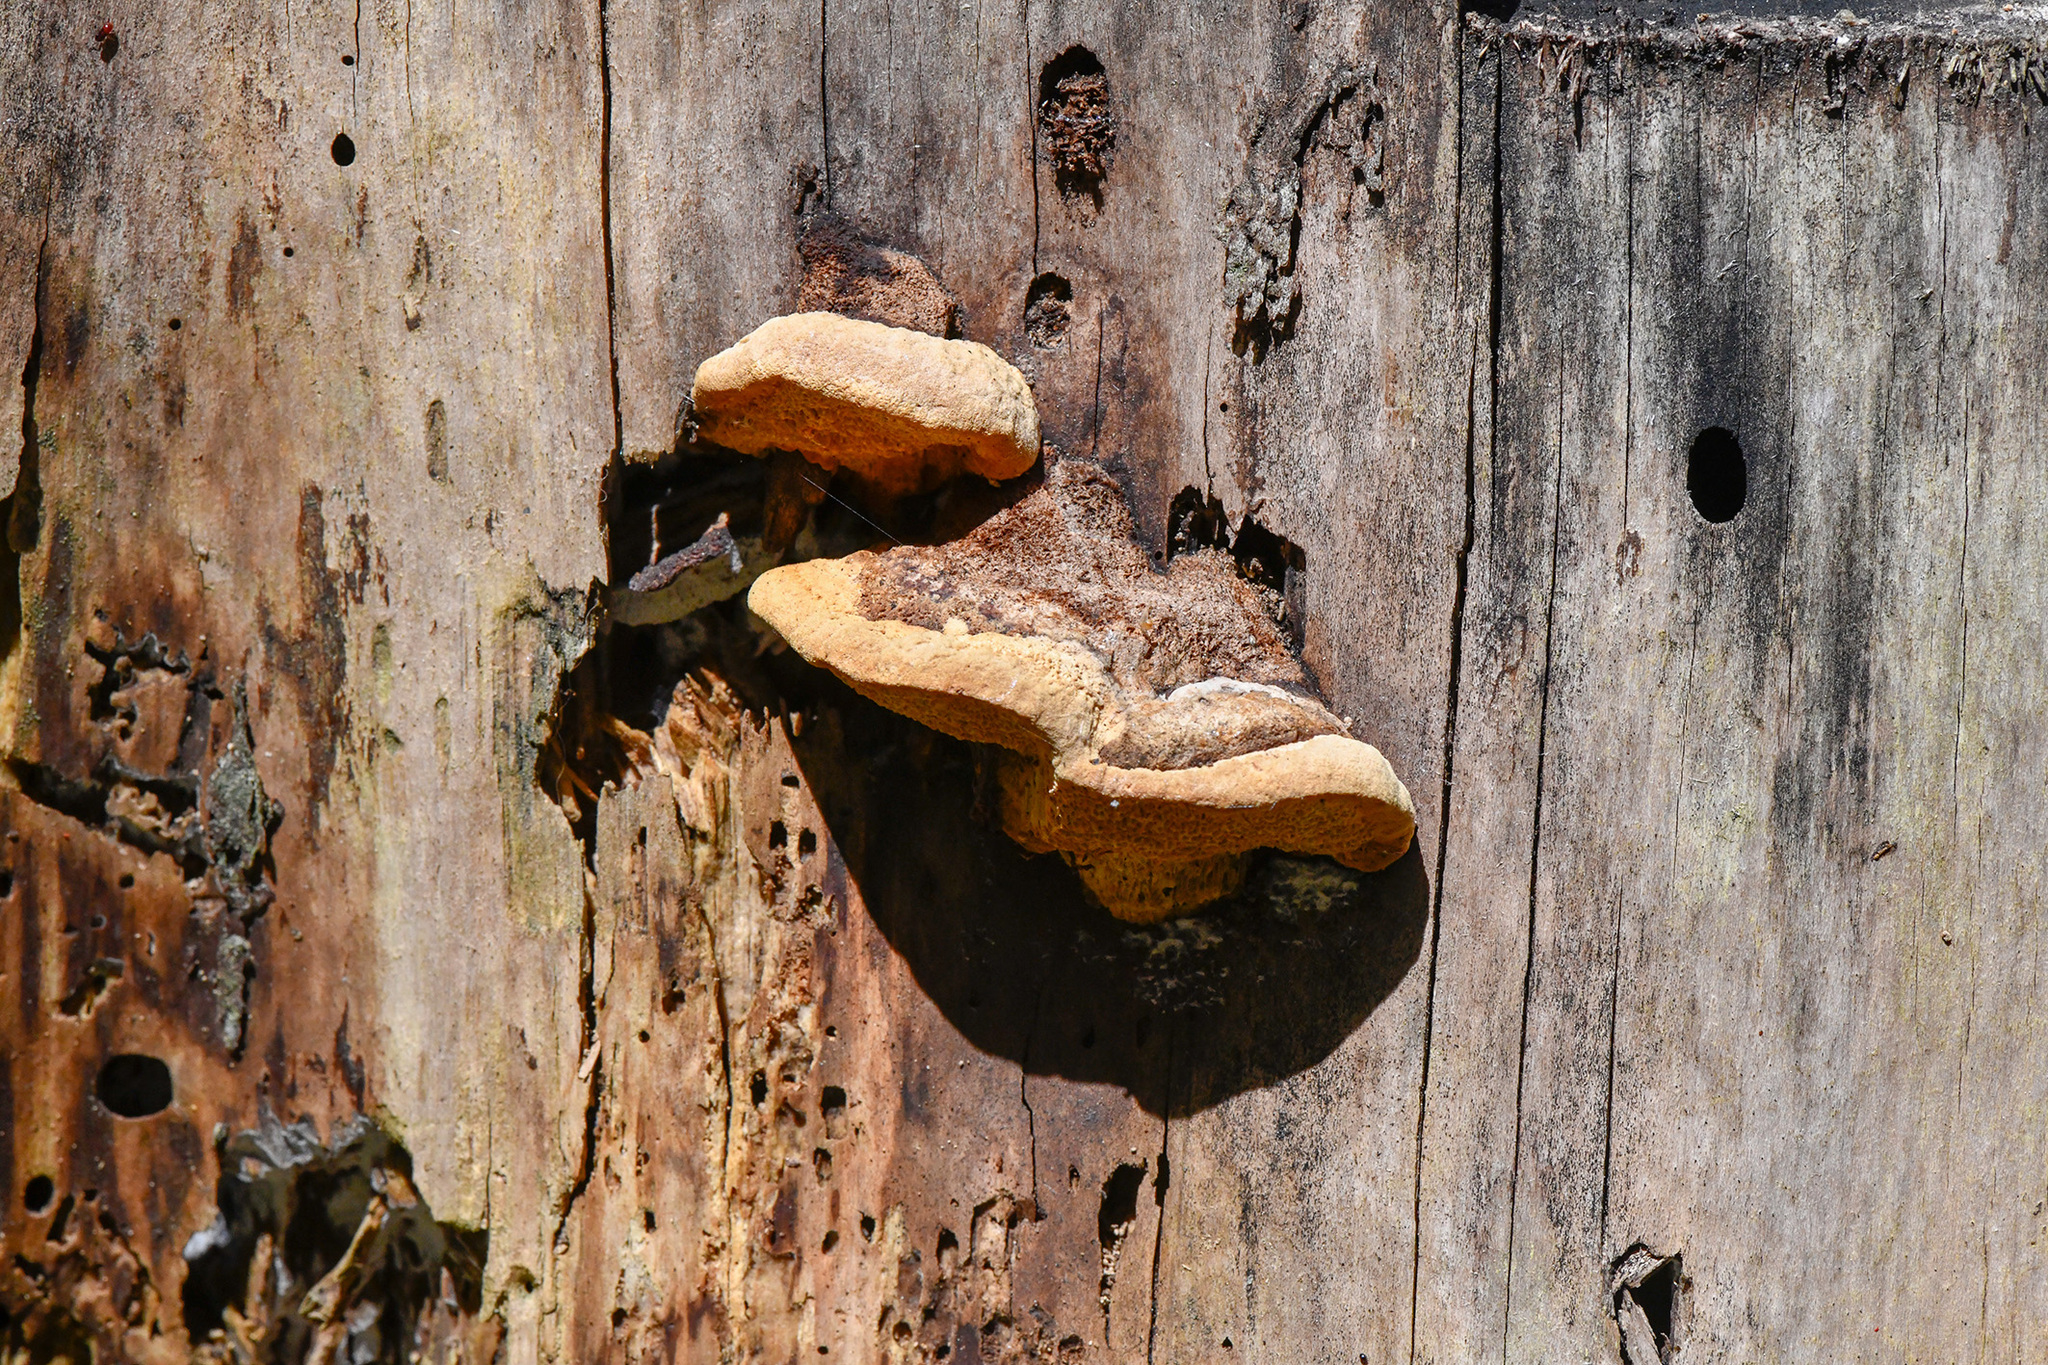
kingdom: Fungi
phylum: Basidiomycota
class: Agaricomycetes
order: Polyporales
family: Polyporaceae
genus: Trametes
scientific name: Trametes trogii
